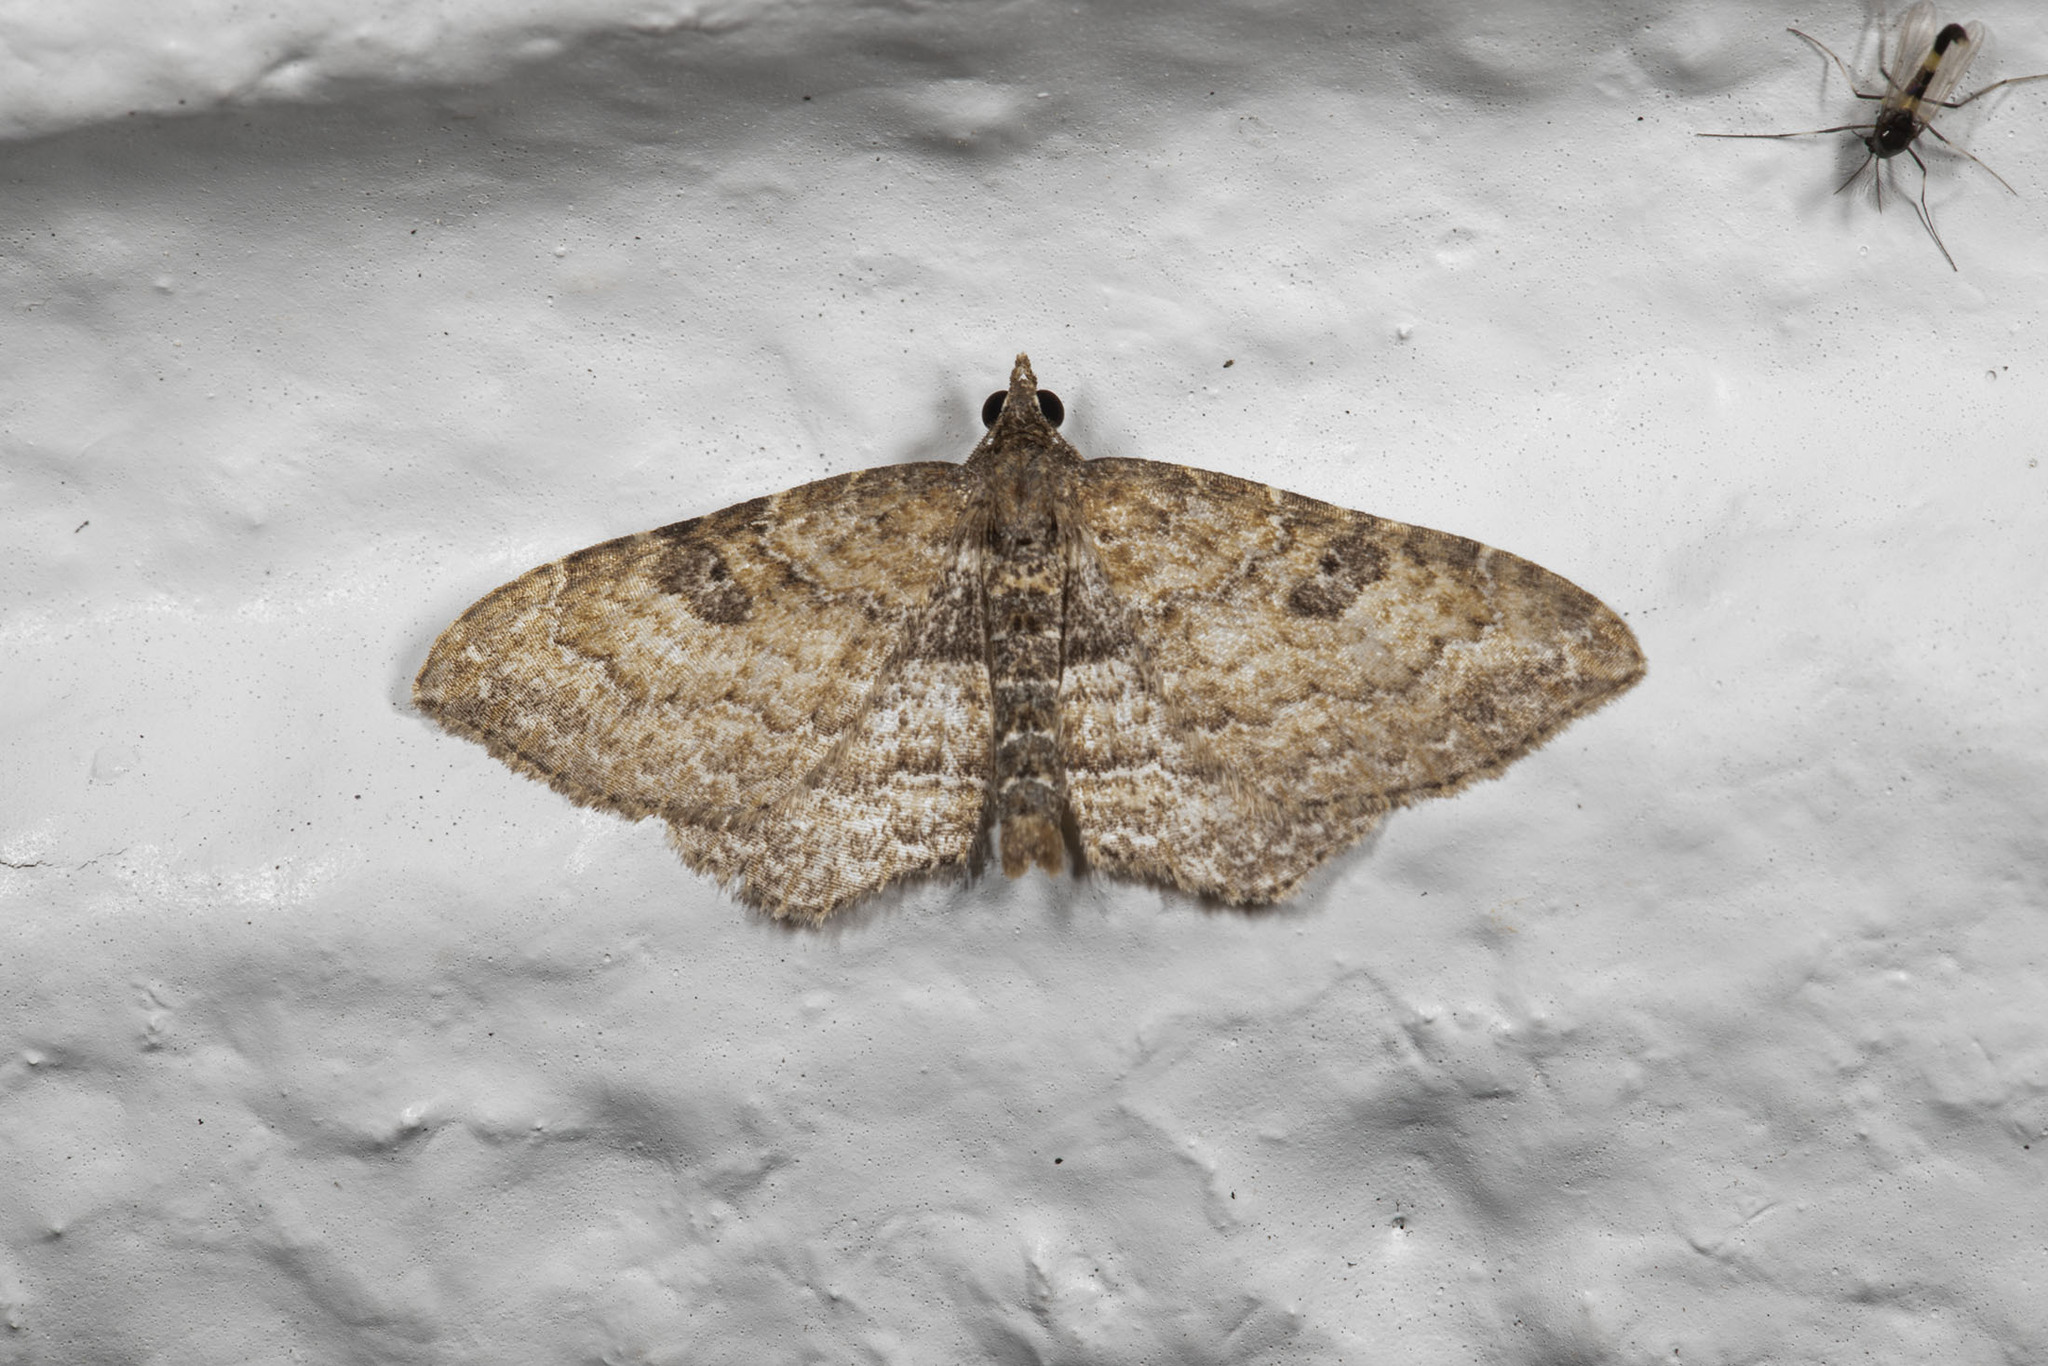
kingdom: Animalia
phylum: Arthropoda
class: Insecta
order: Lepidoptera
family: Geometridae
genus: Orthonama
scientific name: Orthonama obstipata
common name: The gem
